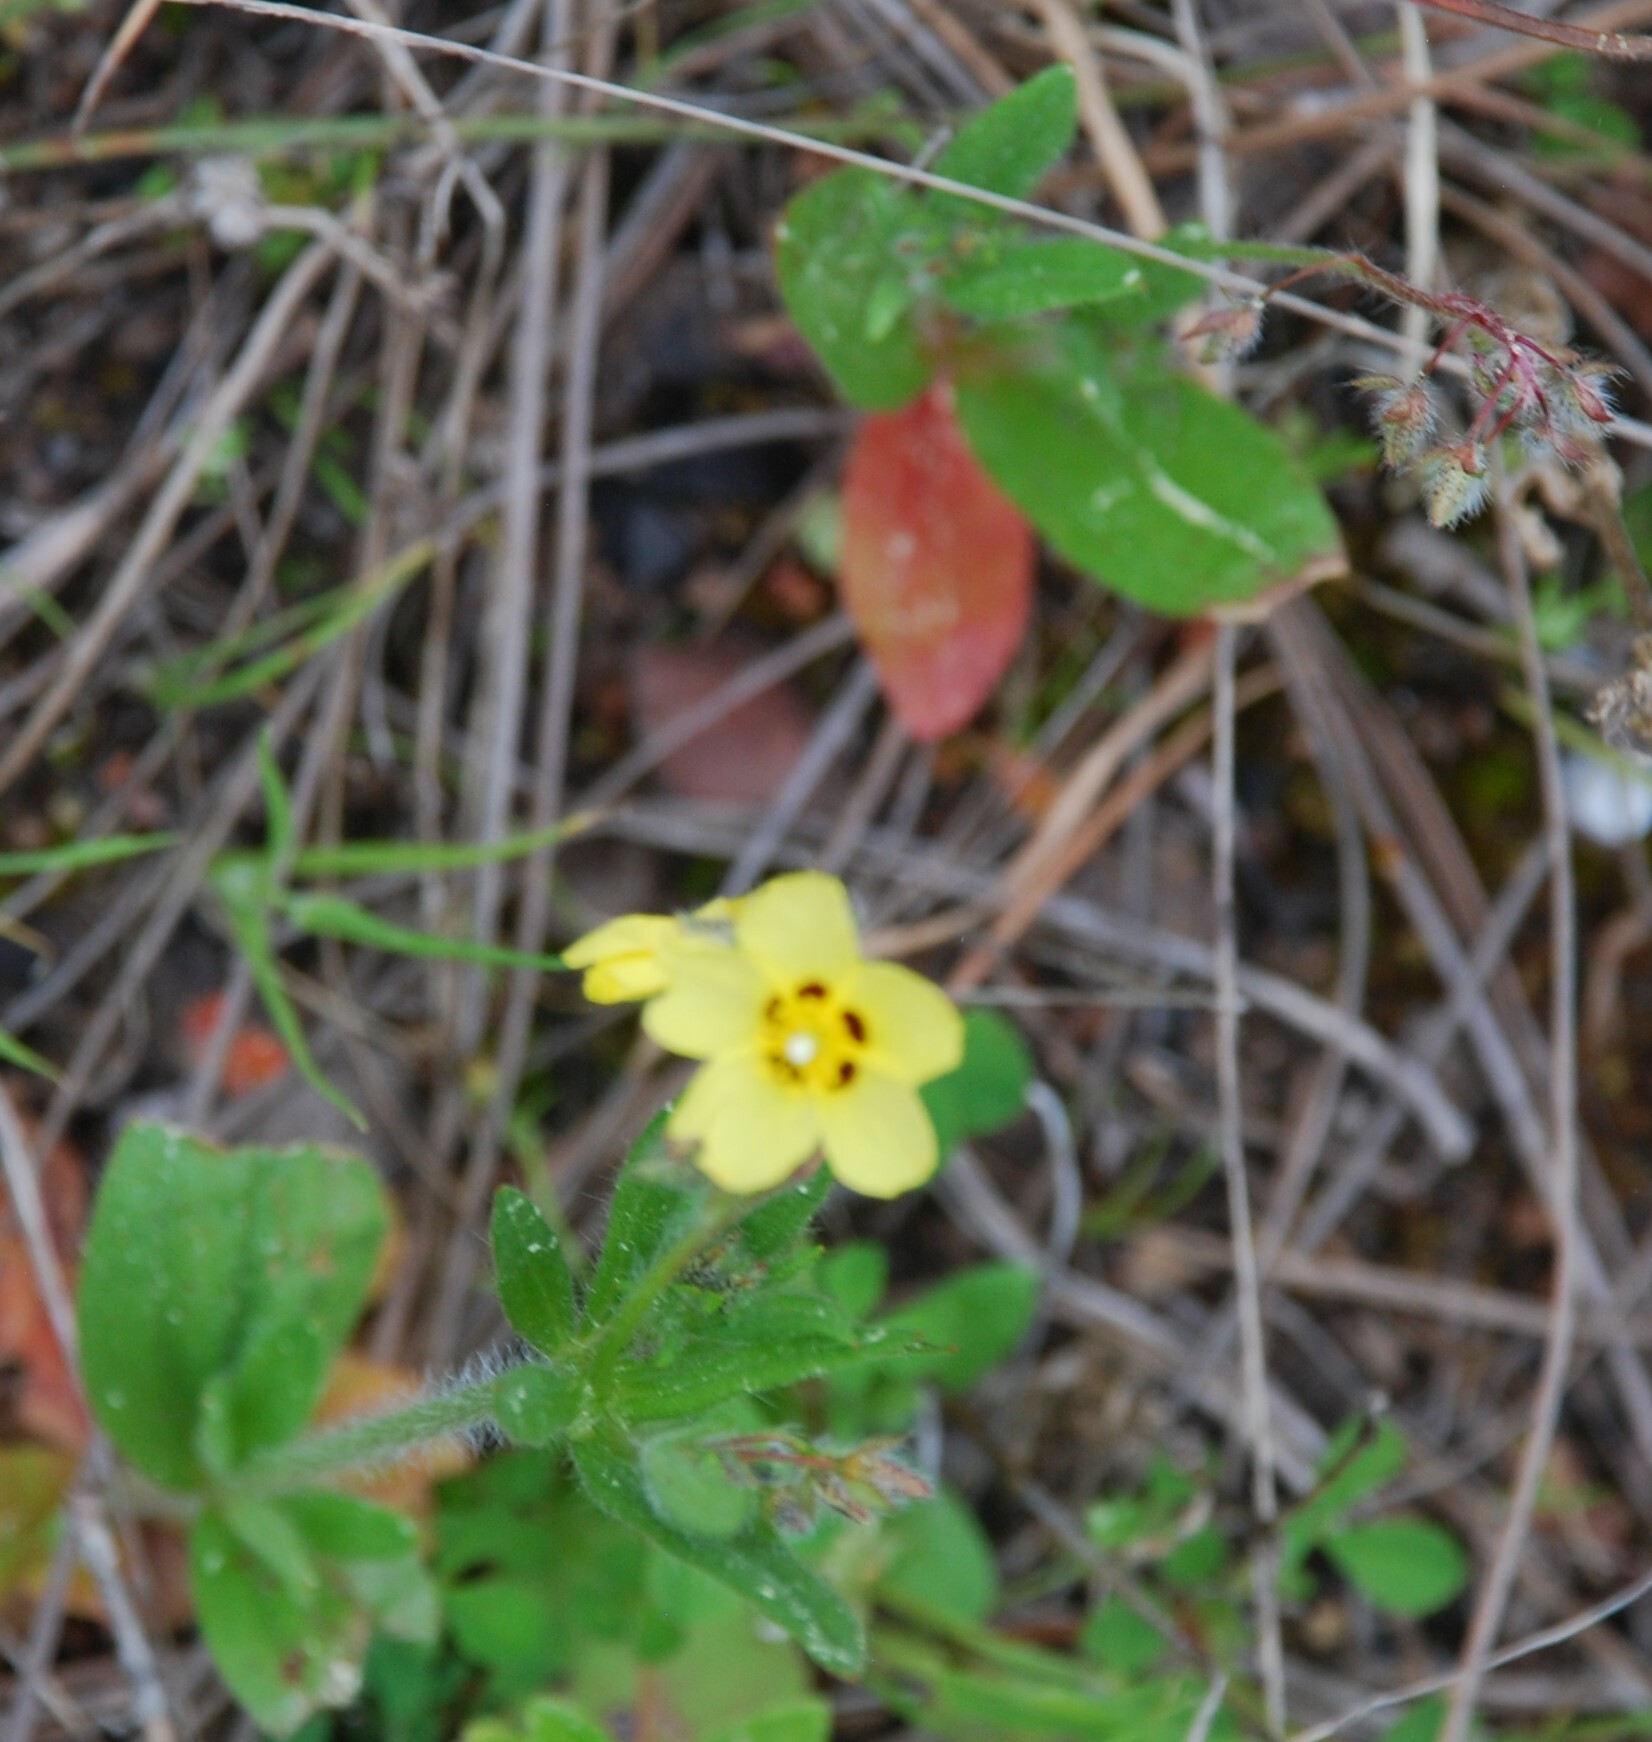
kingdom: Plantae
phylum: Tracheophyta
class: Magnoliopsida
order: Malvales
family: Cistaceae
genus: Tuberaria
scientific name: Tuberaria guttata
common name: Spotted rock-rose
